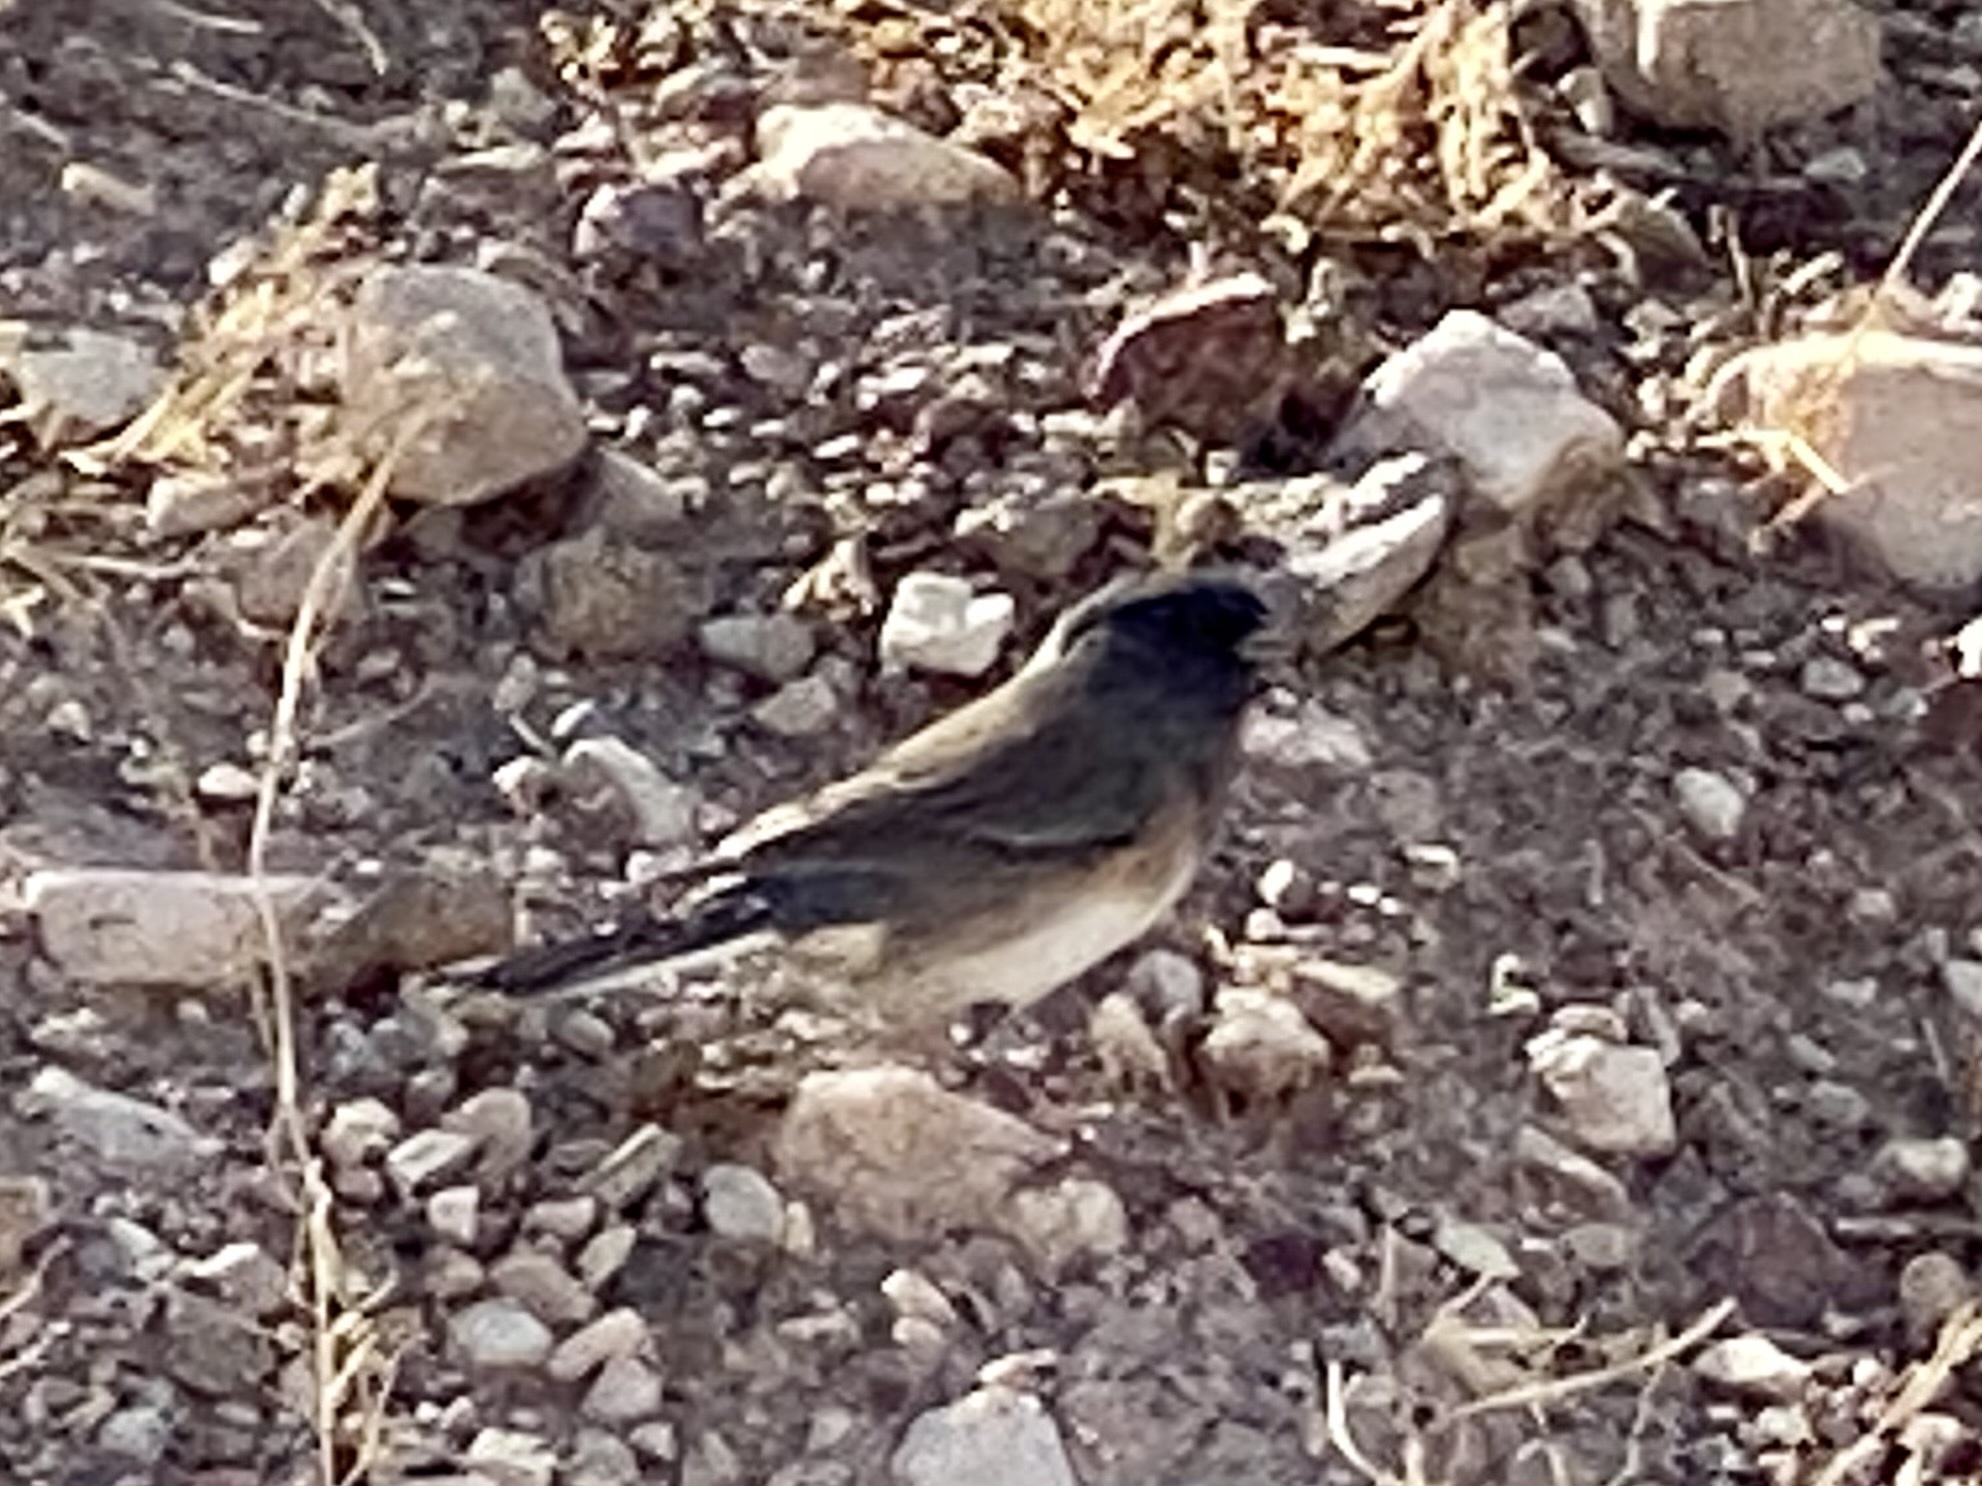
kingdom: Animalia
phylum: Chordata
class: Aves
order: Passeriformes
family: Passerellidae
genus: Junco
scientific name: Junco hyemalis
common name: Dark-eyed junco
